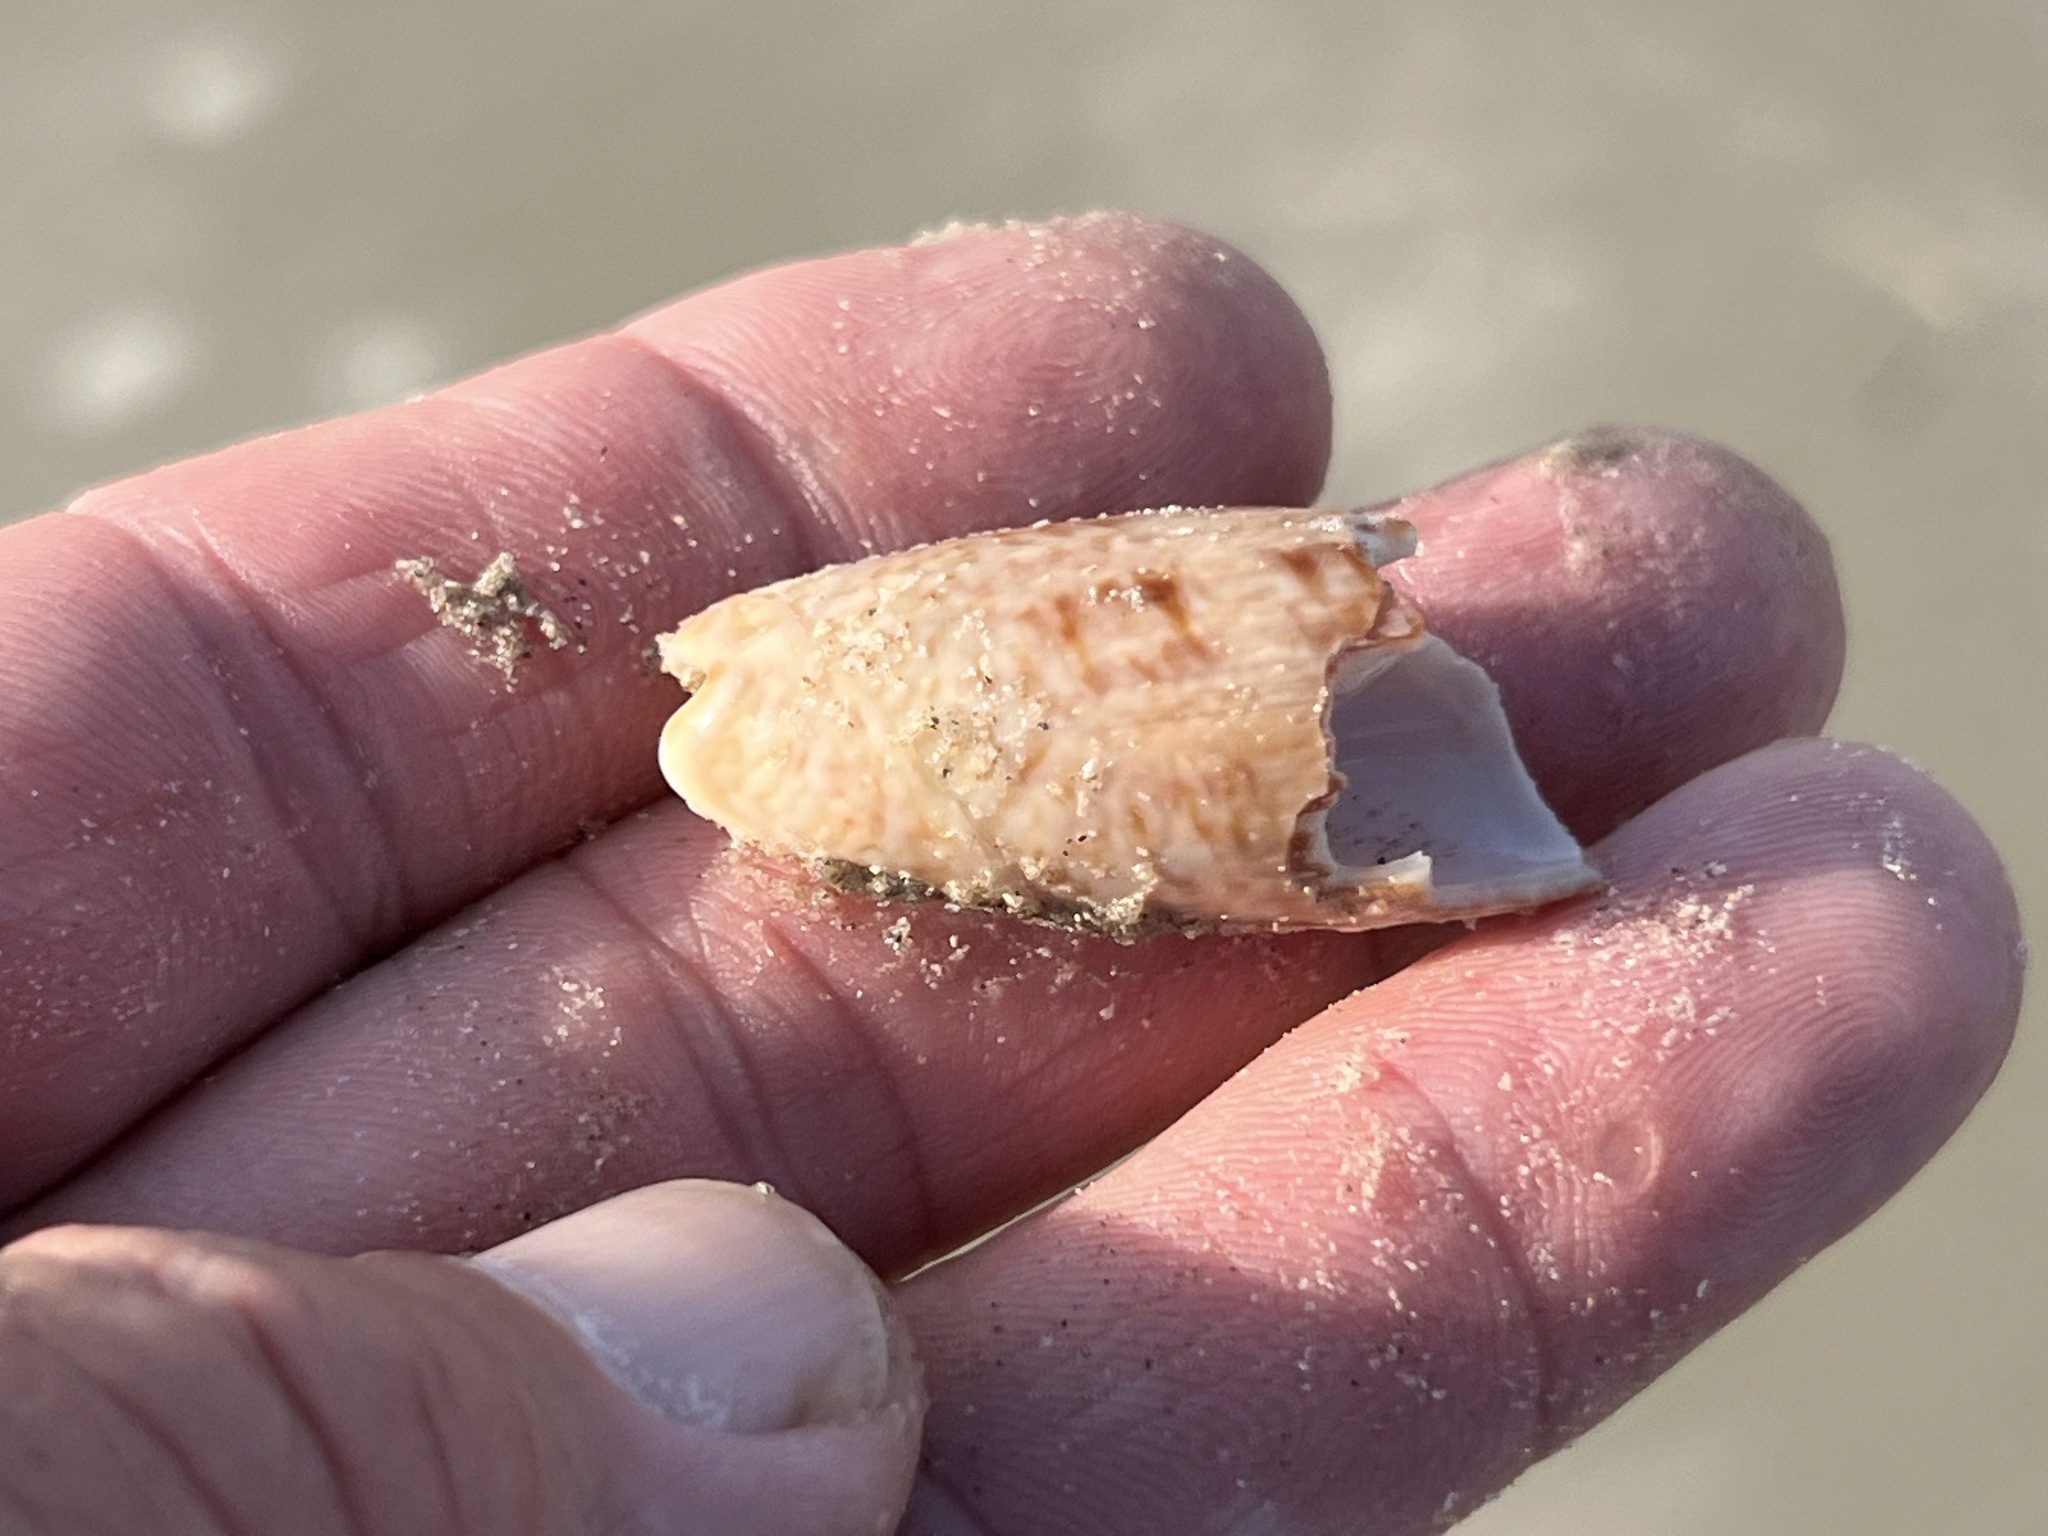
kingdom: Animalia
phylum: Mollusca
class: Gastropoda
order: Neogastropoda
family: Olividae
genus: Oliva
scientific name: Oliva sayana
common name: Lettered olive
